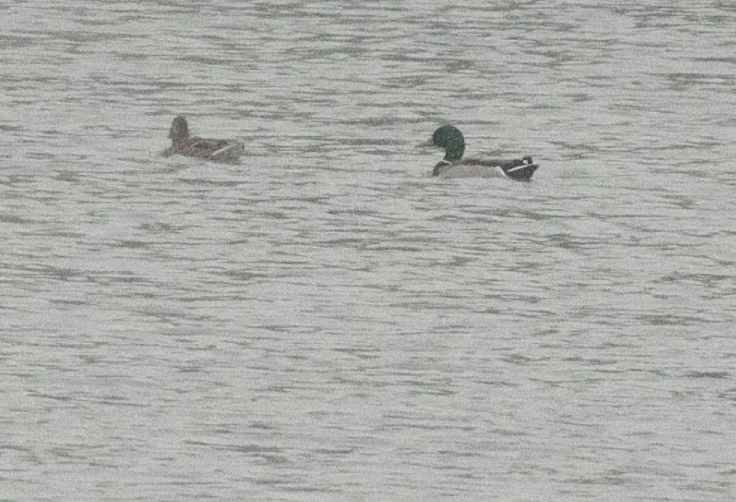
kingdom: Animalia
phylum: Chordata
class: Aves
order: Anseriformes
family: Anatidae
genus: Anas
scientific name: Anas platyrhynchos
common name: Mallard
